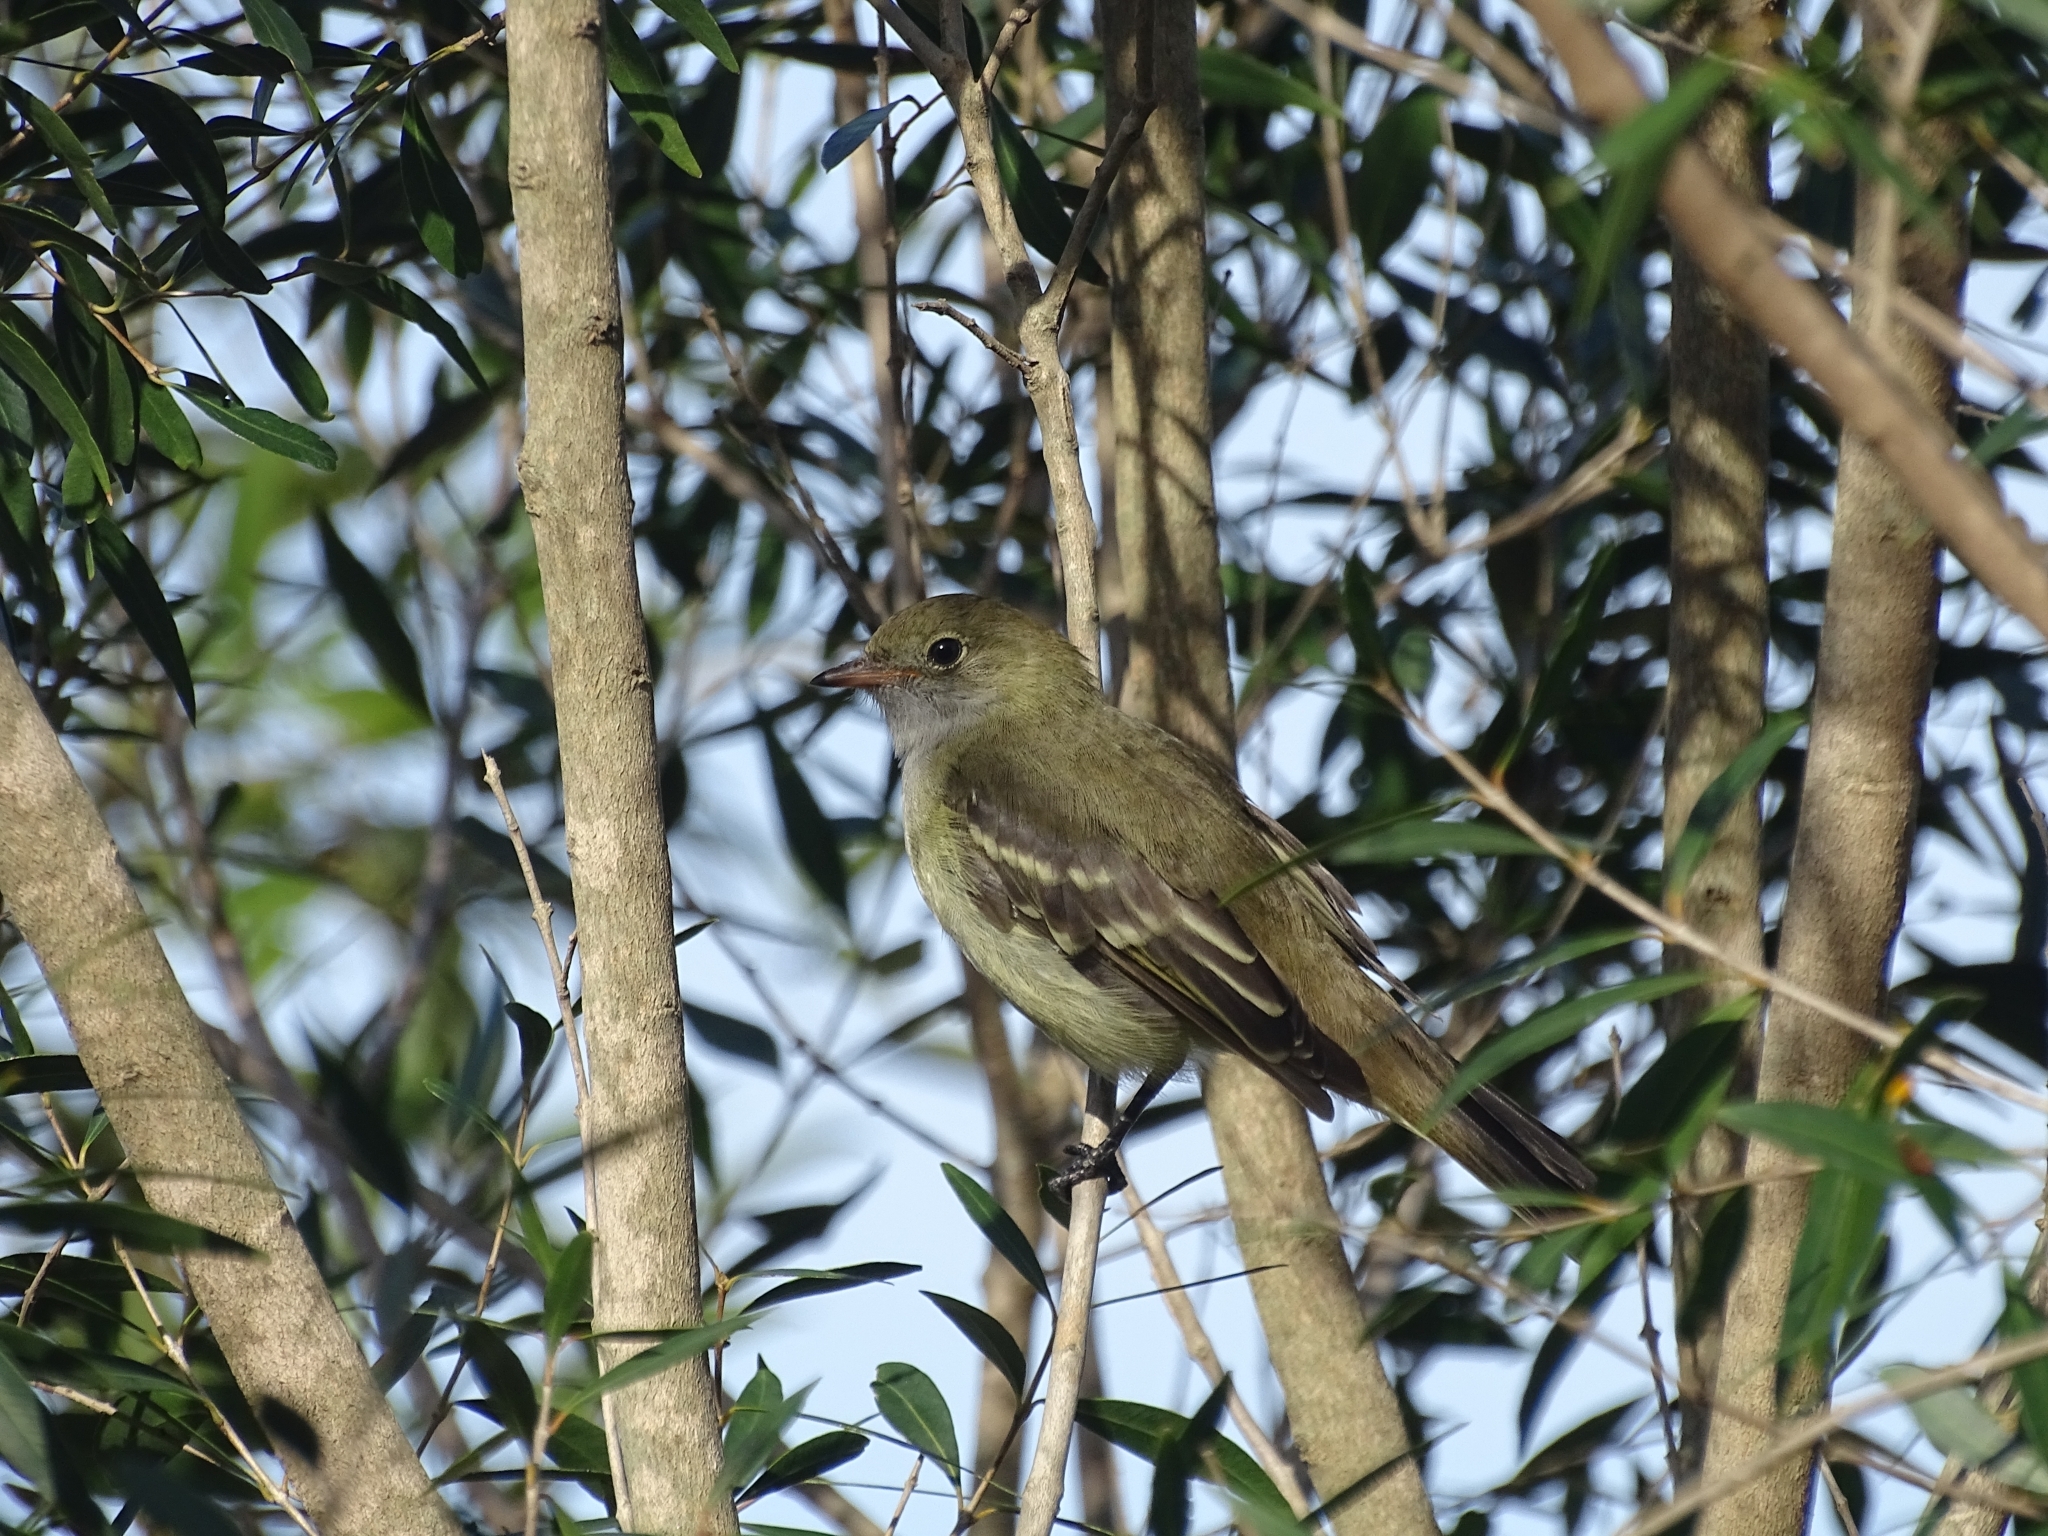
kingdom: Animalia
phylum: Chordata
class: Aves
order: Passeriformes
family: Tyrannidae
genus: Elaenia
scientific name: Elaenia parvirostris
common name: Small-billed elaenia
